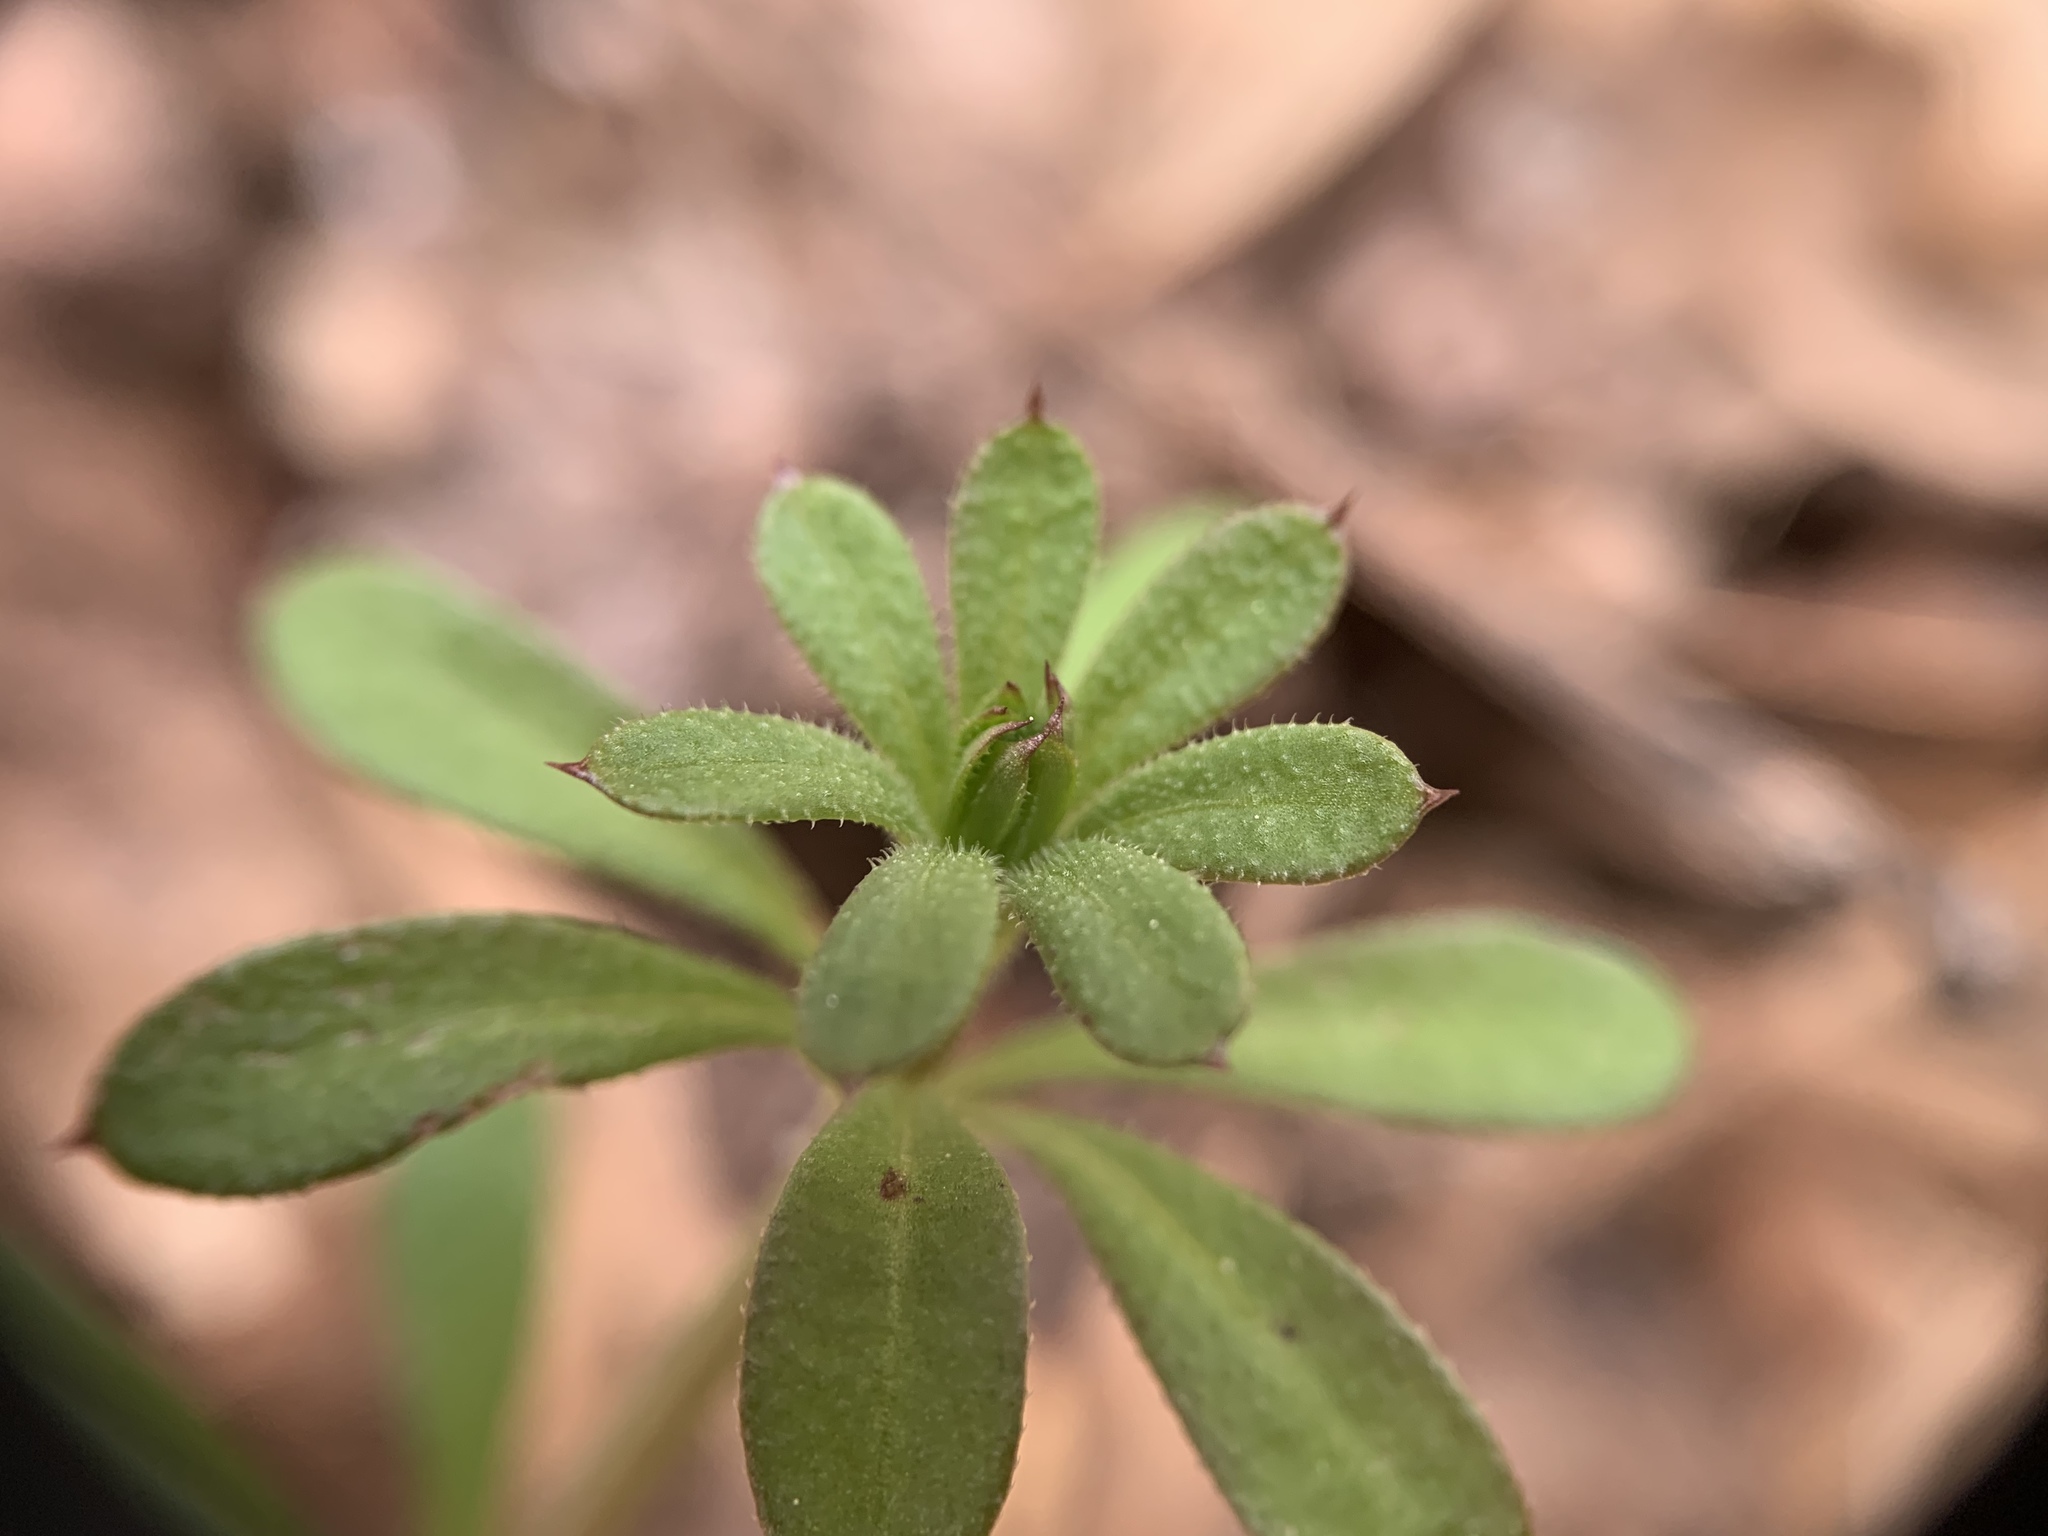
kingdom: Plantae
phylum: Tracheophyta
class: Magnoliopsida
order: Gentianales
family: Rubiaceae
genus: Galium
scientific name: Galium aparine
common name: Cleavers
